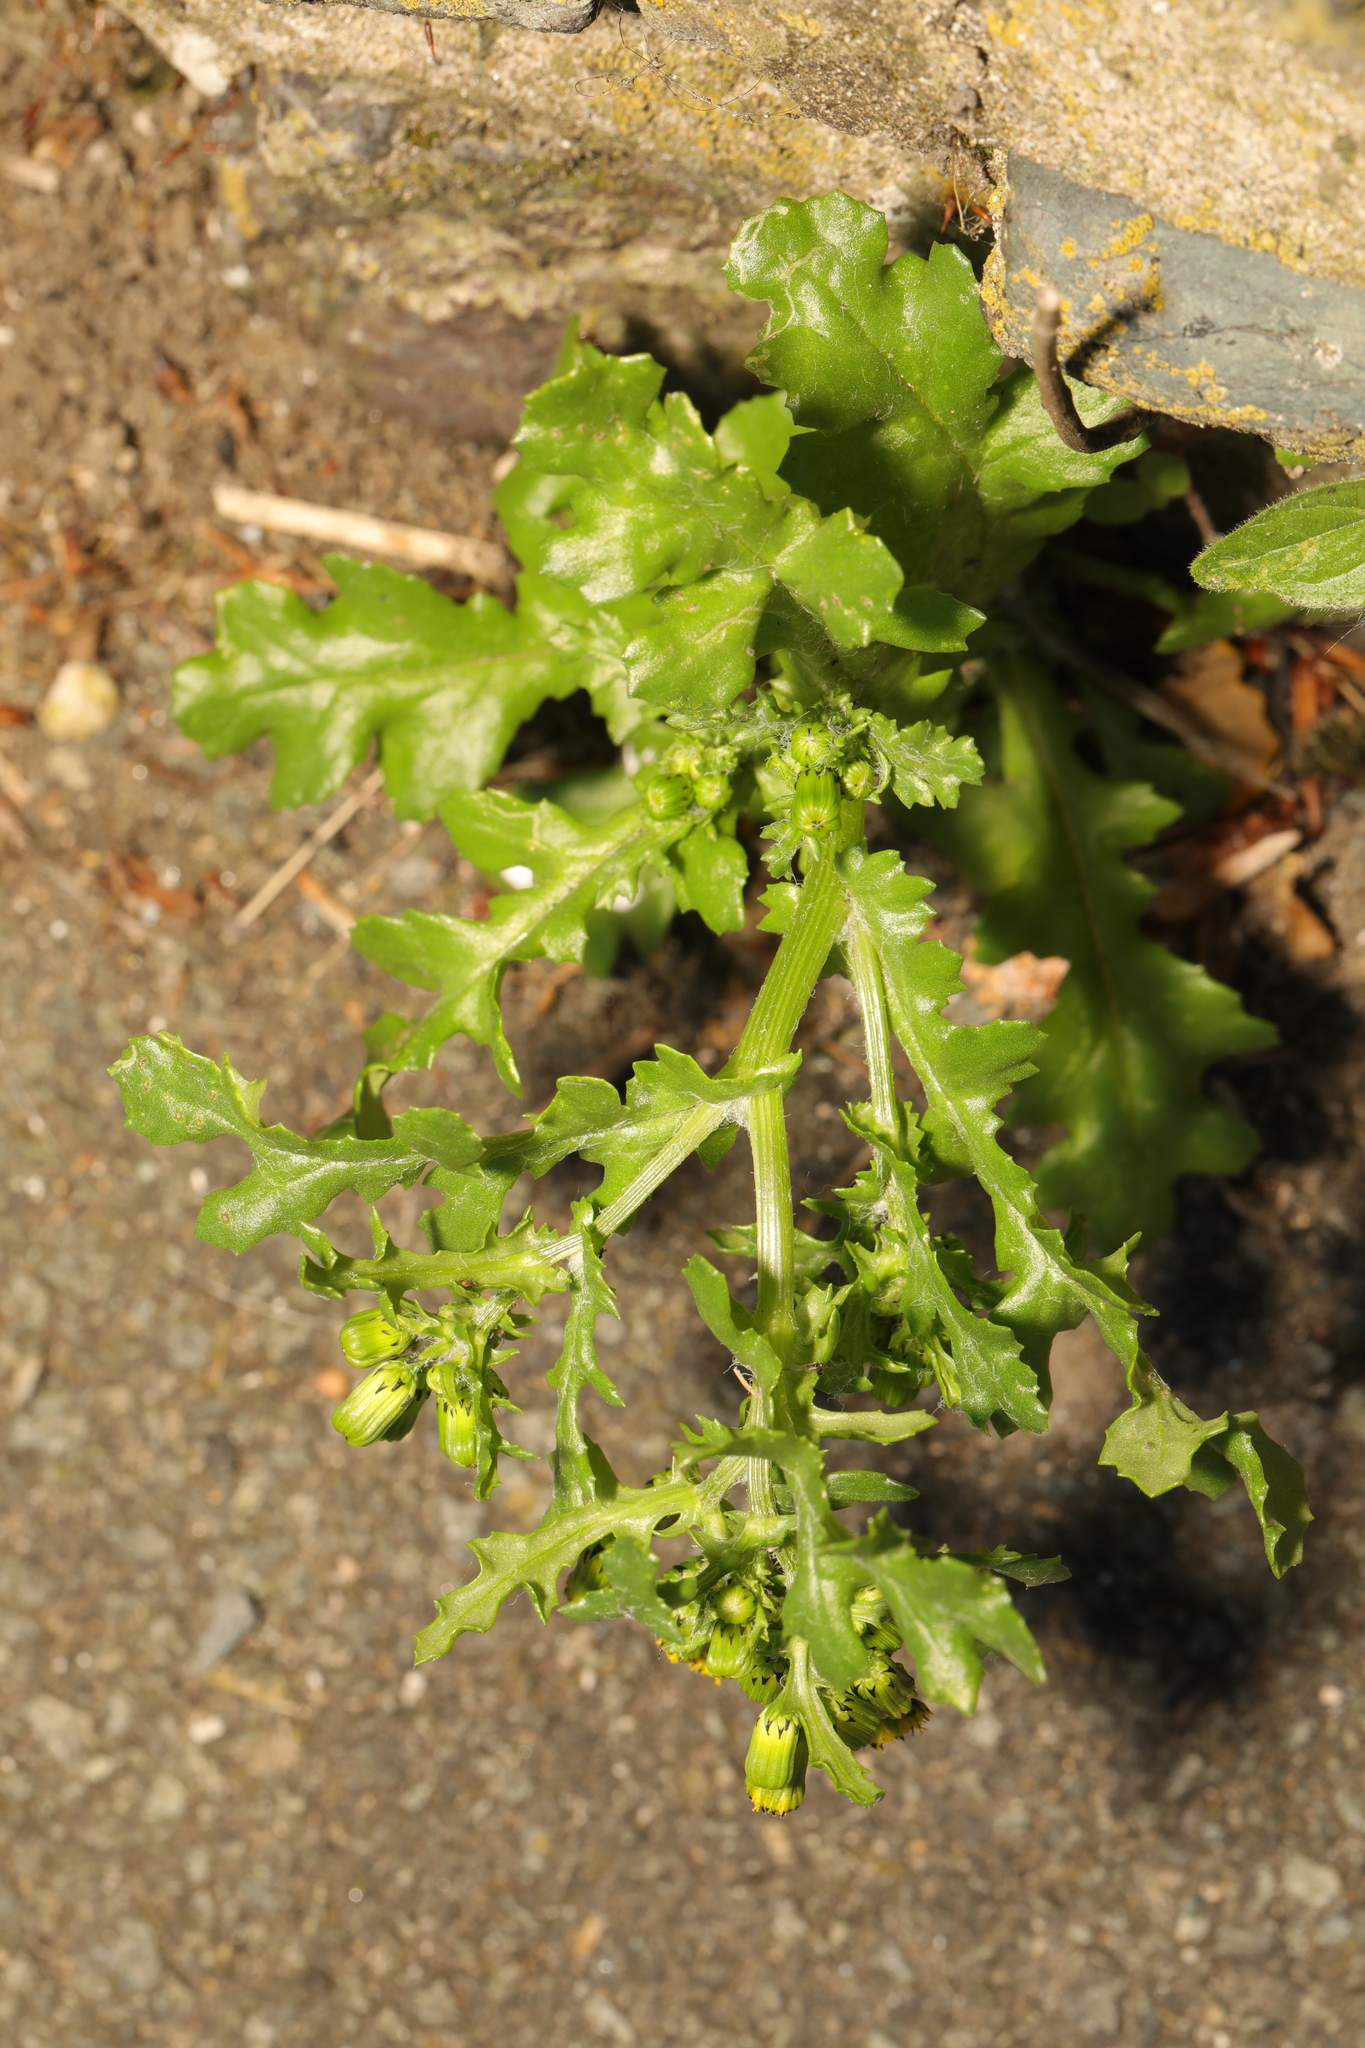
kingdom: Plantae
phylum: Tracheophyta
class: Magnoliopsida
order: Asterales
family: Asteraceae
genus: Senecio
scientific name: Senecio vulgaris
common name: Old-man-in-the-spring
